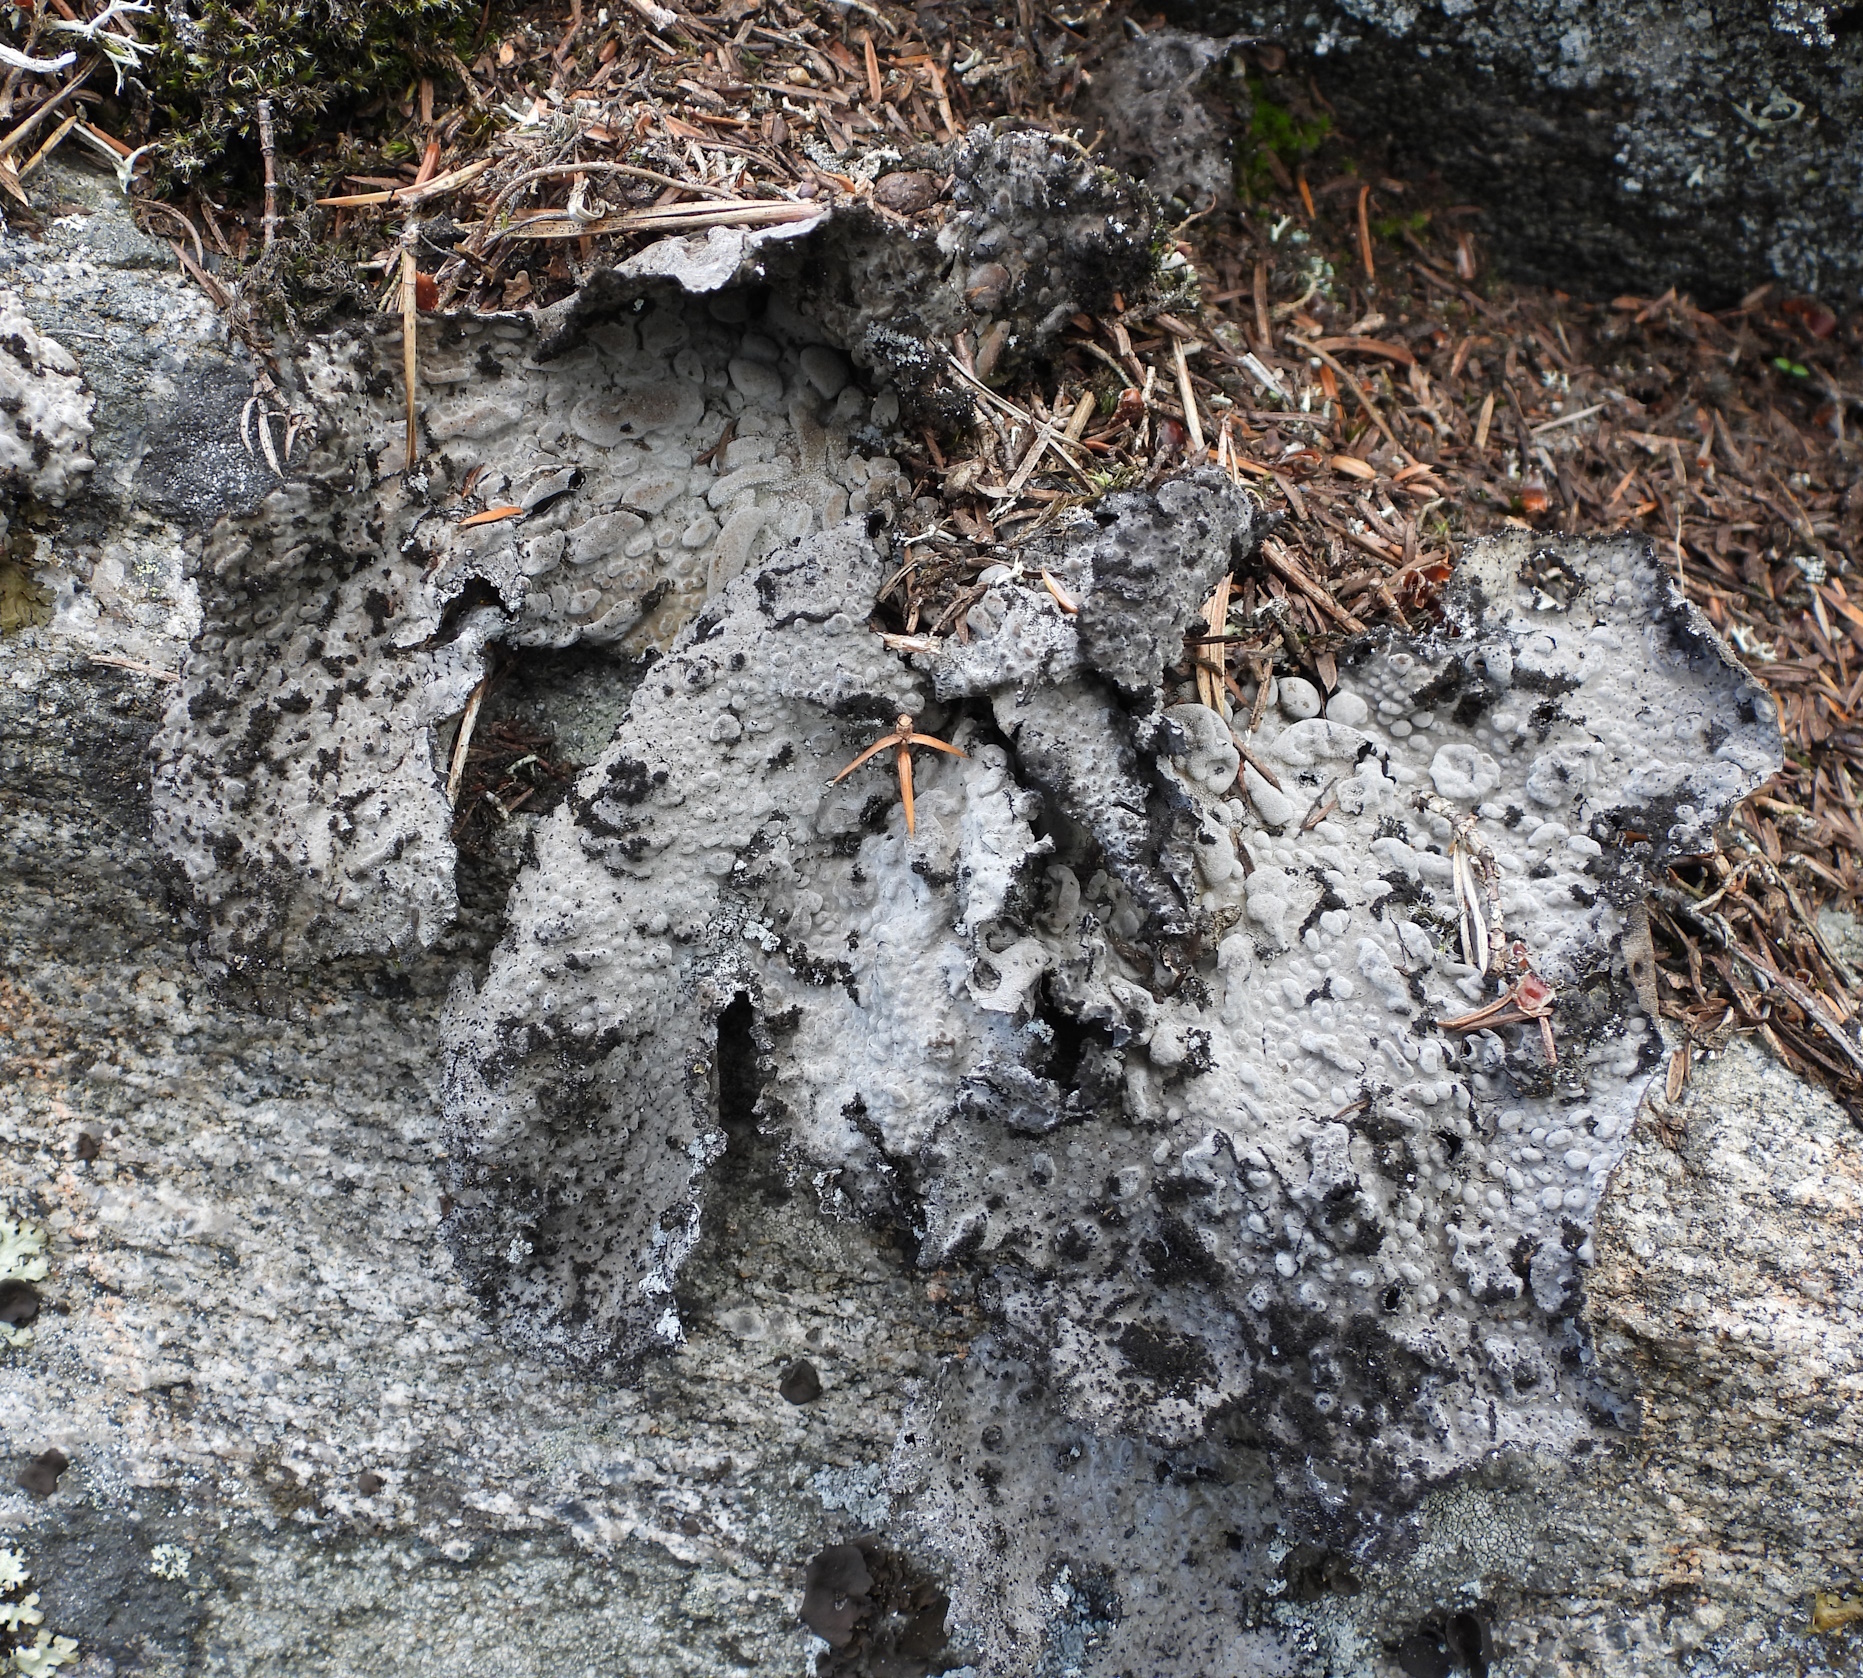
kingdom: Fungi
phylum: Ascomycota
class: Lecanoromycetes
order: Umbilicariales
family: Umbilicariaceae
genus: Lasallia
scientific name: Lasallia pustulata
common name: Blistered toadskin lichen
